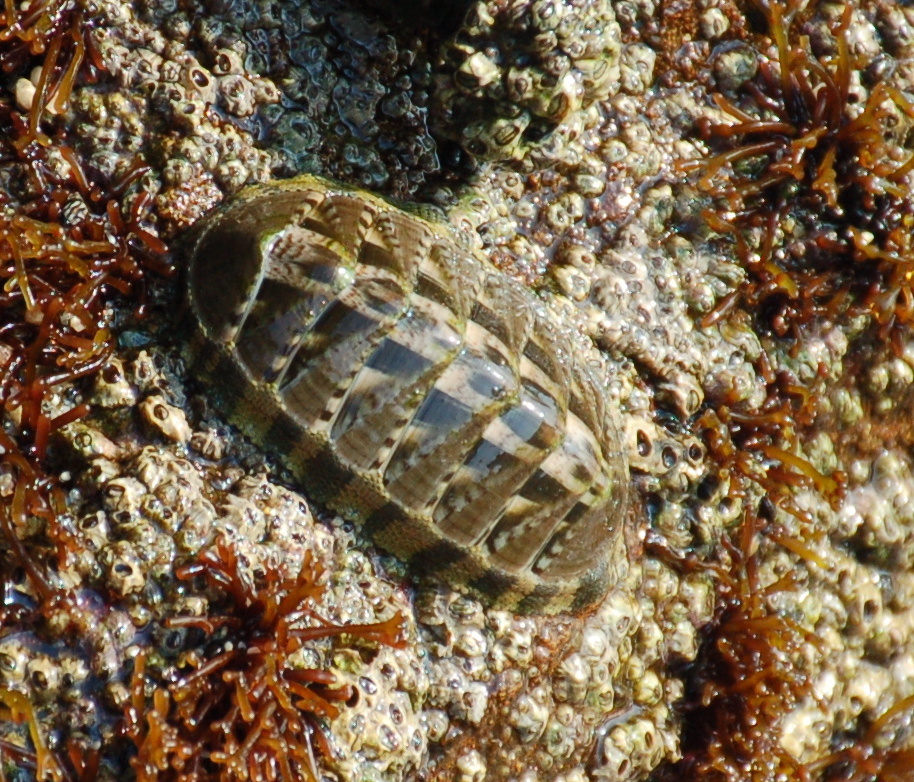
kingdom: Animalia
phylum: Mollusca
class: Polyplacophora
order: Chitonida
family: Chitonidae
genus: Chiton
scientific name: Chiton articulatus
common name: Smooth panama chiton
